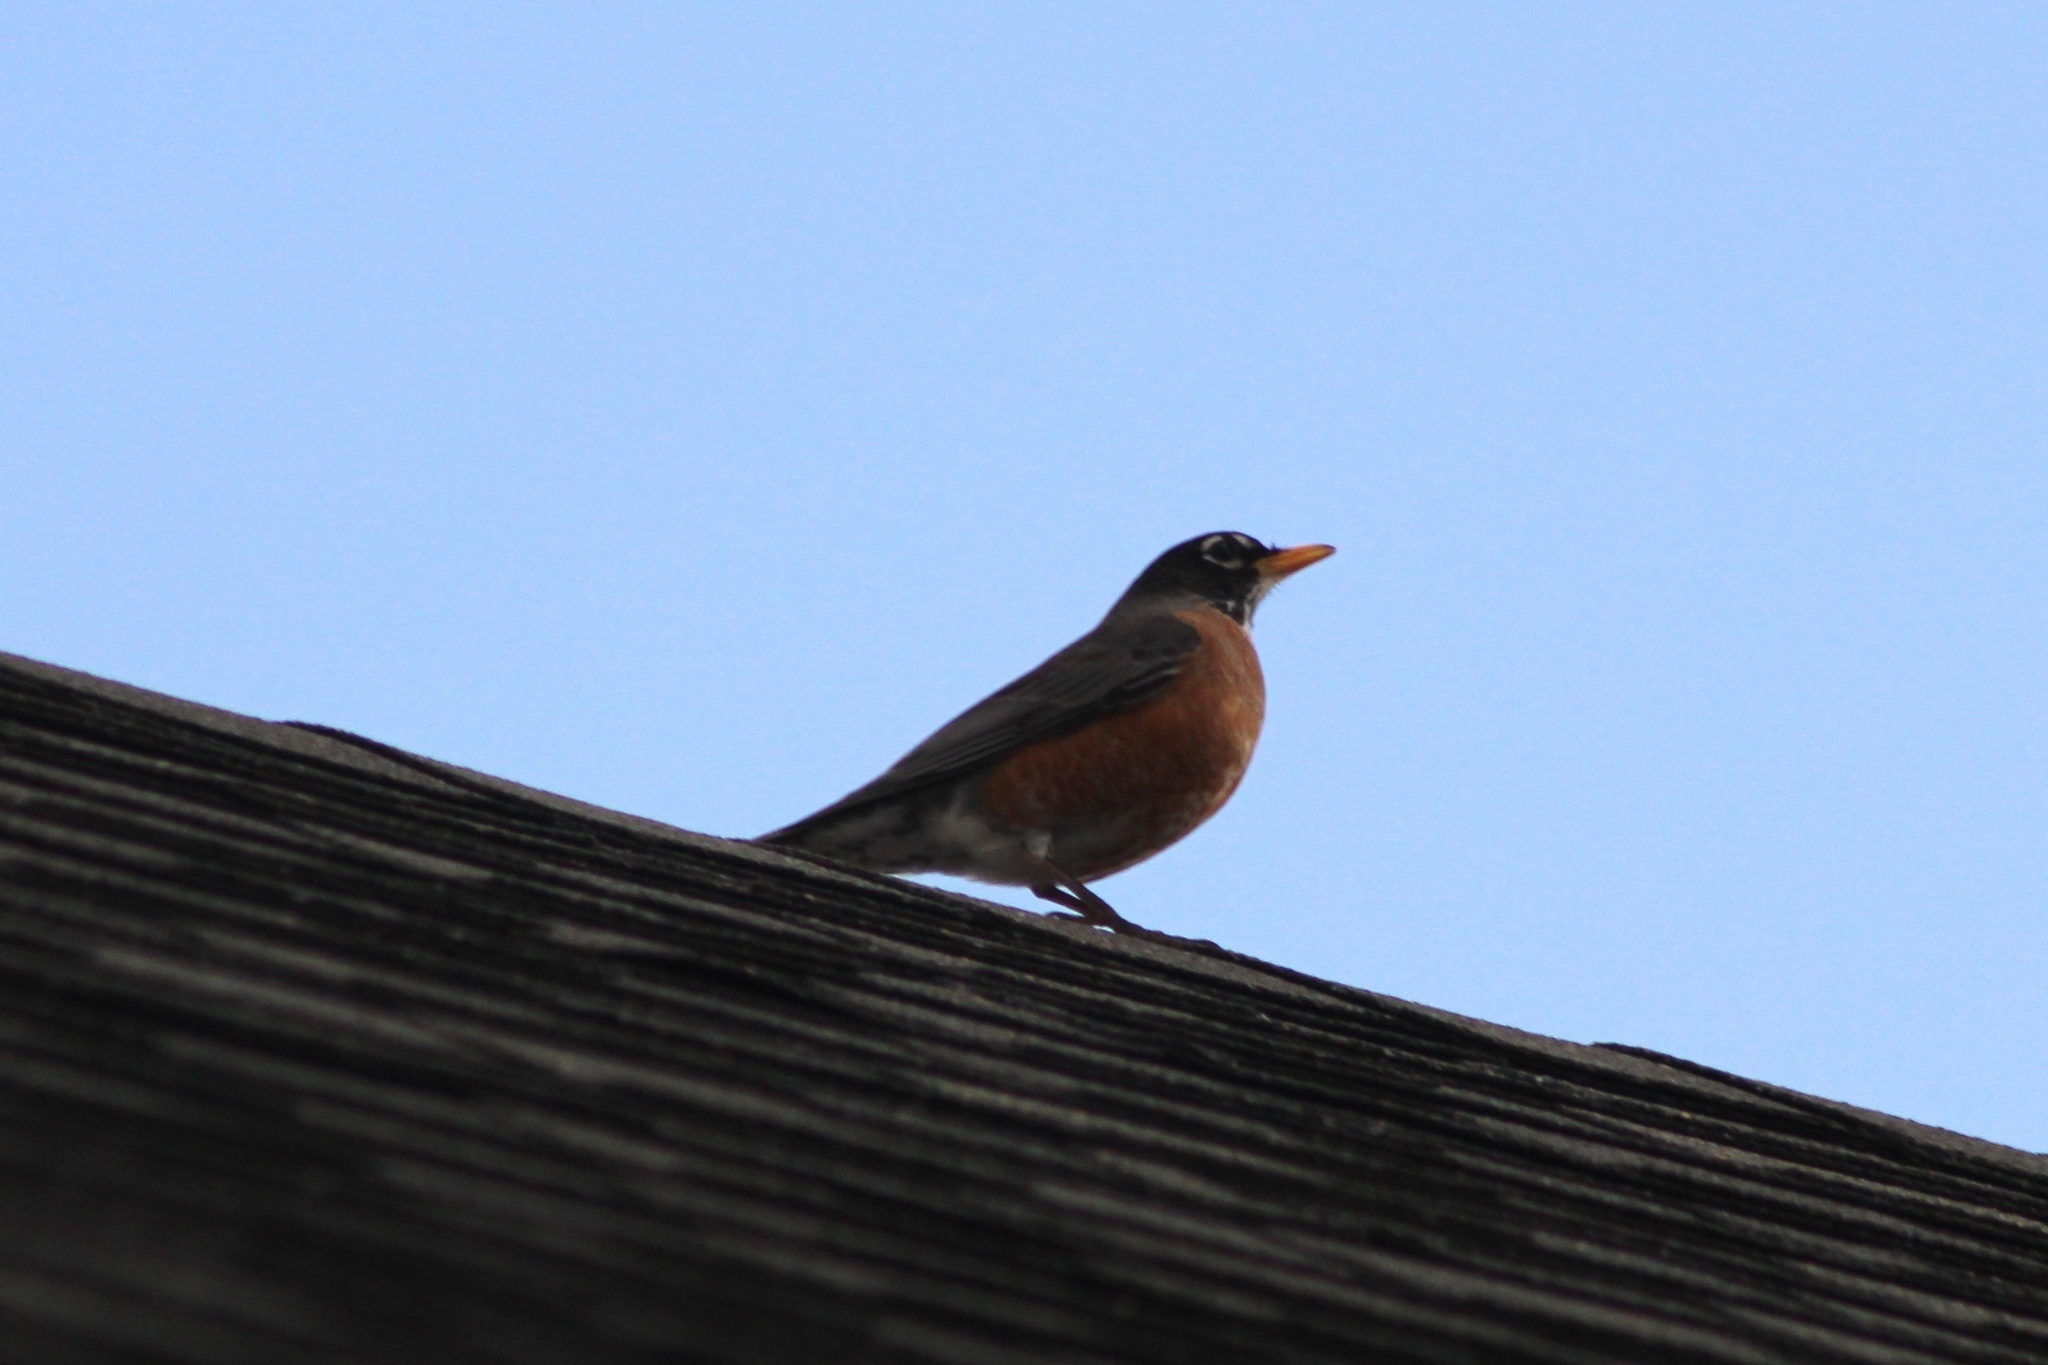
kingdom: Animalia
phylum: Chordata
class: Aves
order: Passeriformes
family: Turdidae
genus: Turdus
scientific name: Turdus migratorius
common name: American robin
